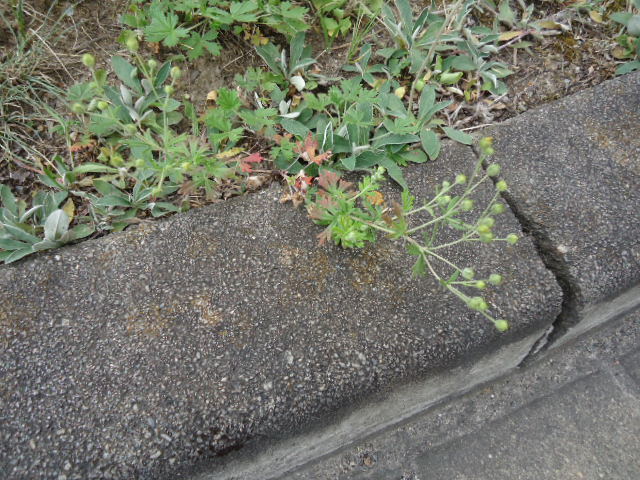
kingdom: Plantae
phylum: Tracheophyta
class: Magnoliopsida
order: Rosales
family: Rosaceae
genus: Potentilla
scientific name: Potentilla argentea
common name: Hoary cinquefoil
